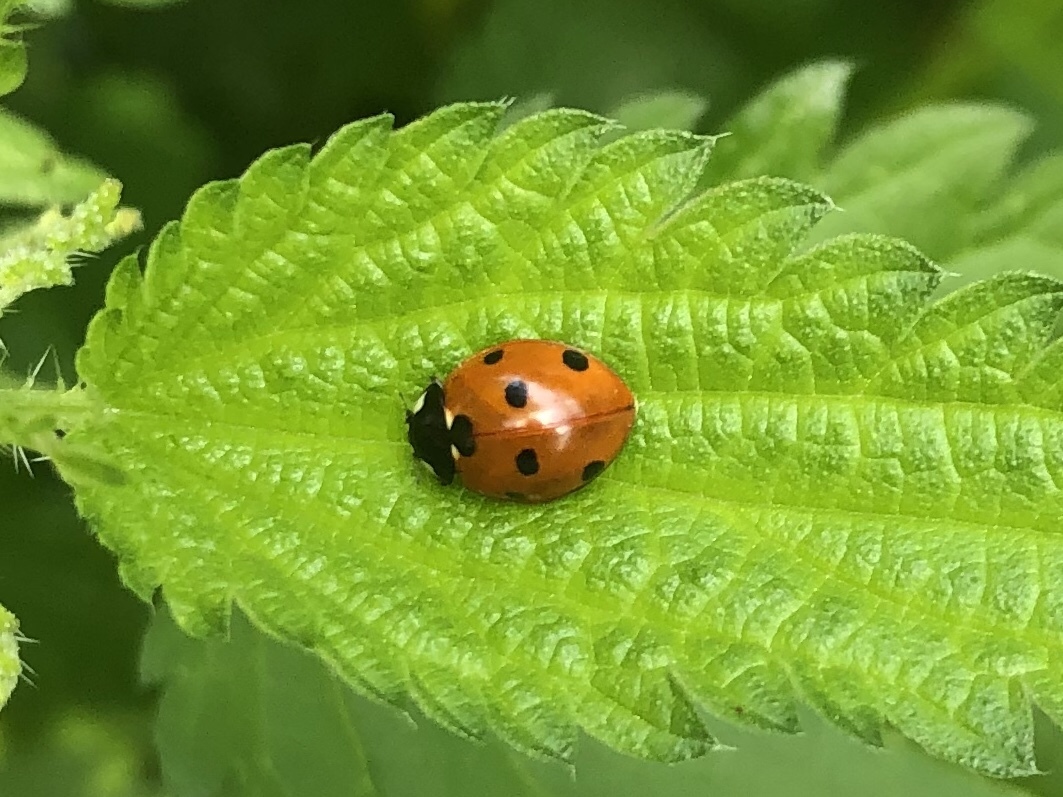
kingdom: Animalia
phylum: Arthropoda
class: Insecta
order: Coleoptera
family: Coccinellidae
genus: Coccinella
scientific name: Coccinella septempunctata
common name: Sevenspotted lady beetle
